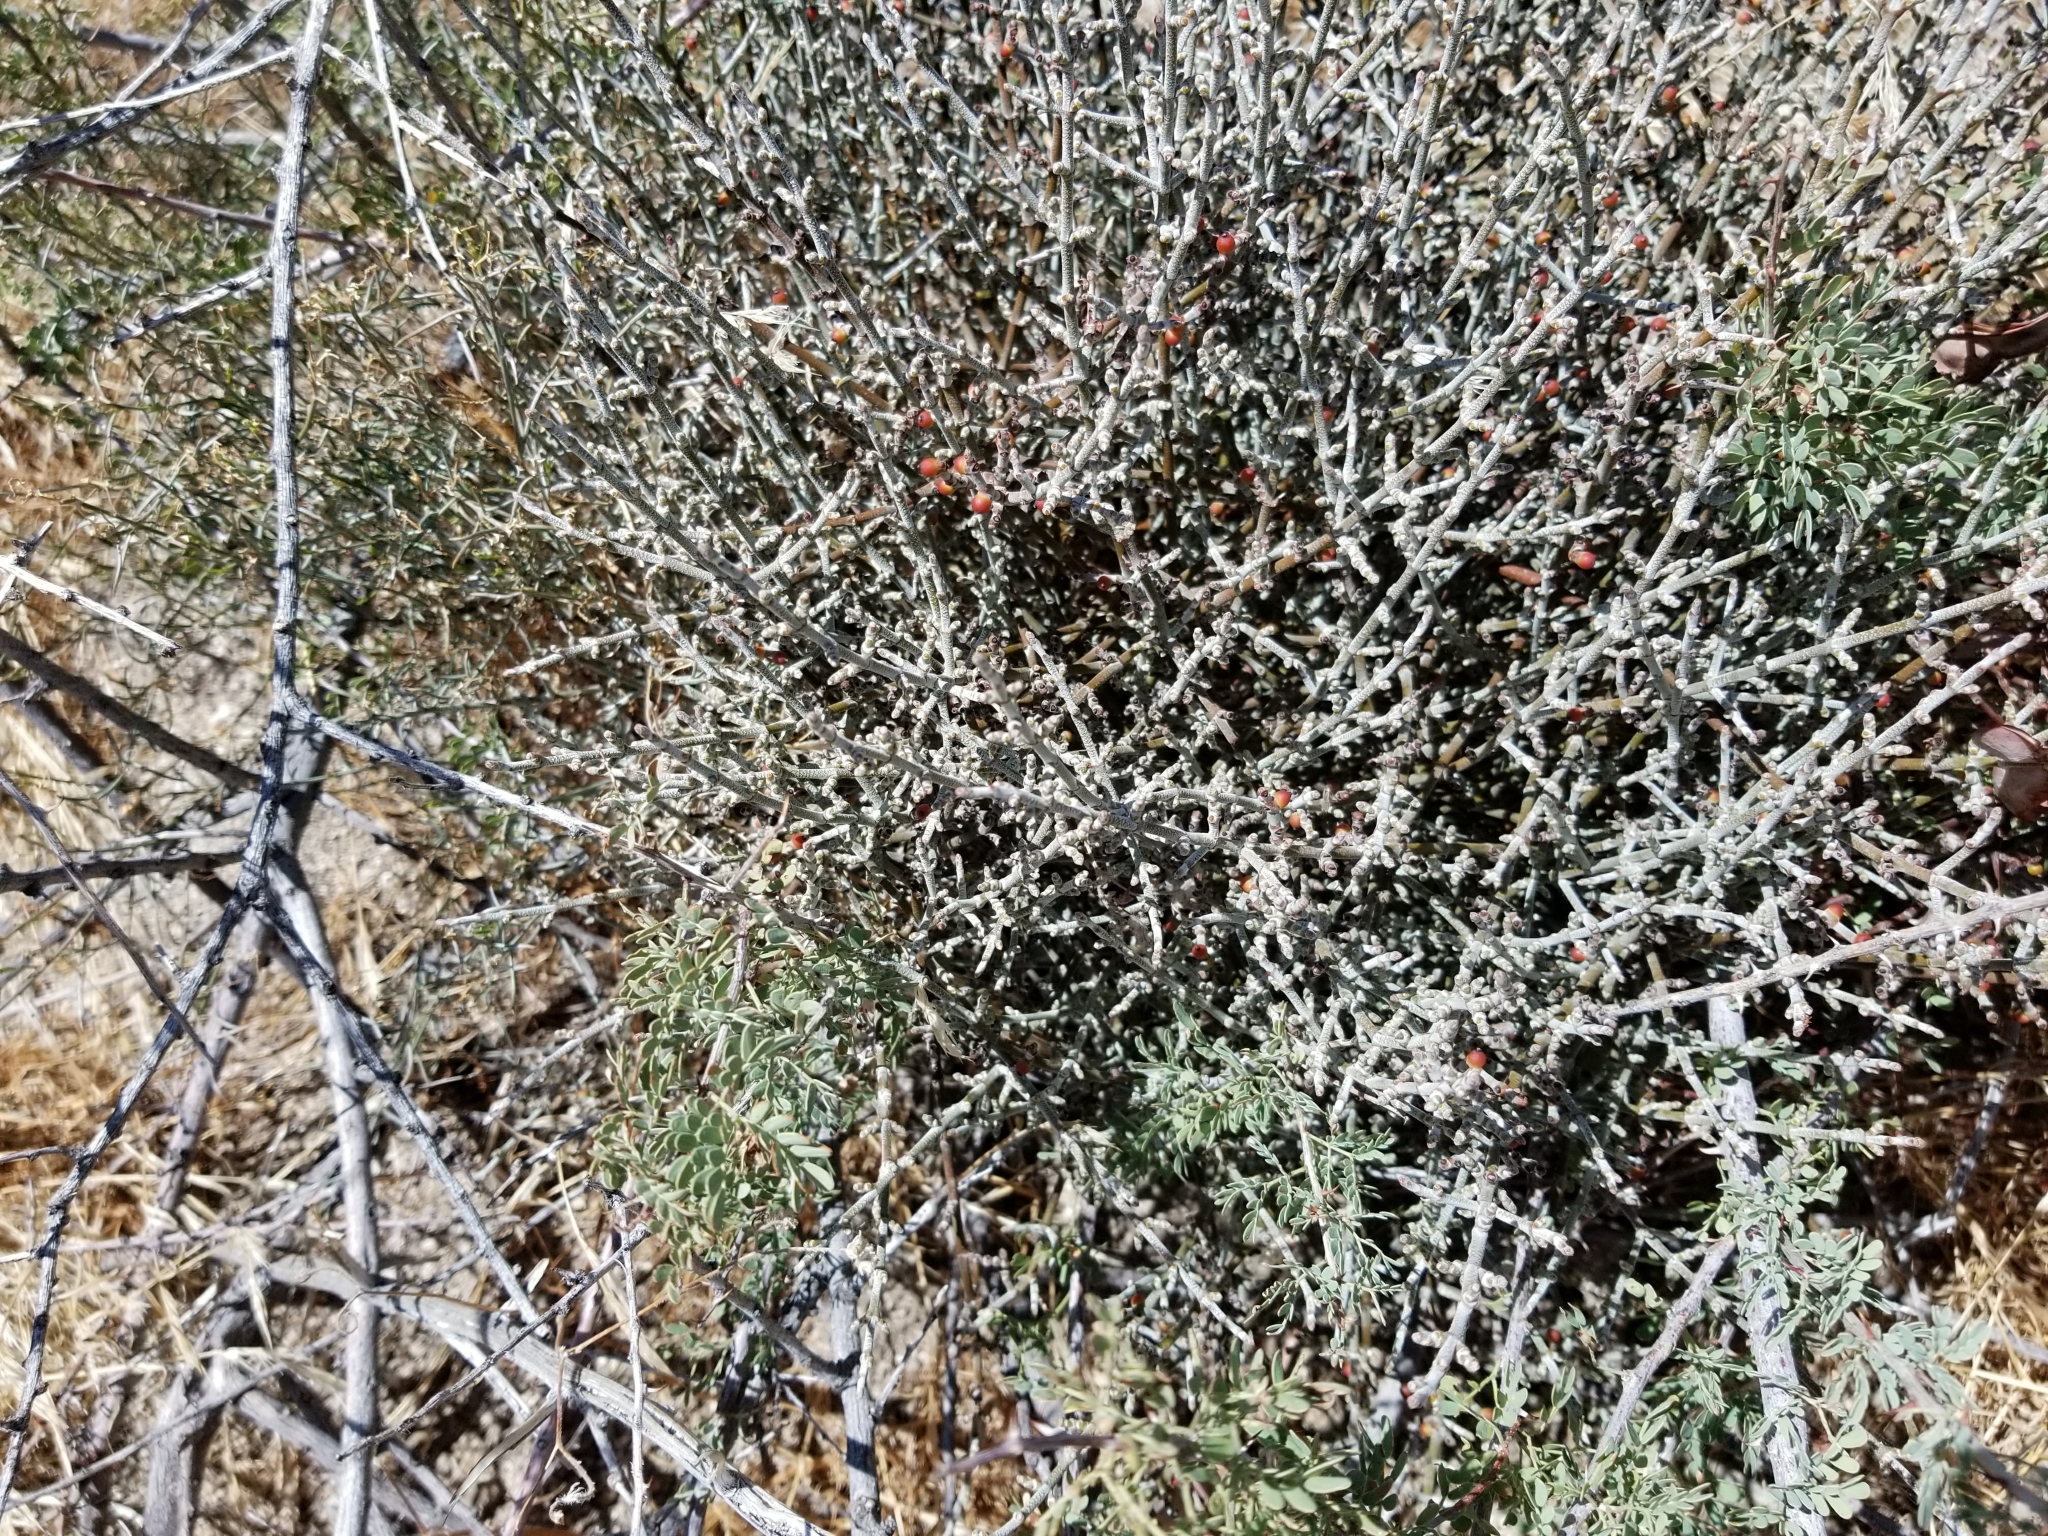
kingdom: Plantae
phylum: Tracheophyta
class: Magnoliopsida
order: Santalales
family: Viscaceae
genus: Phoradendron
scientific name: Phoradendron californicum
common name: Acacia mistletoe
